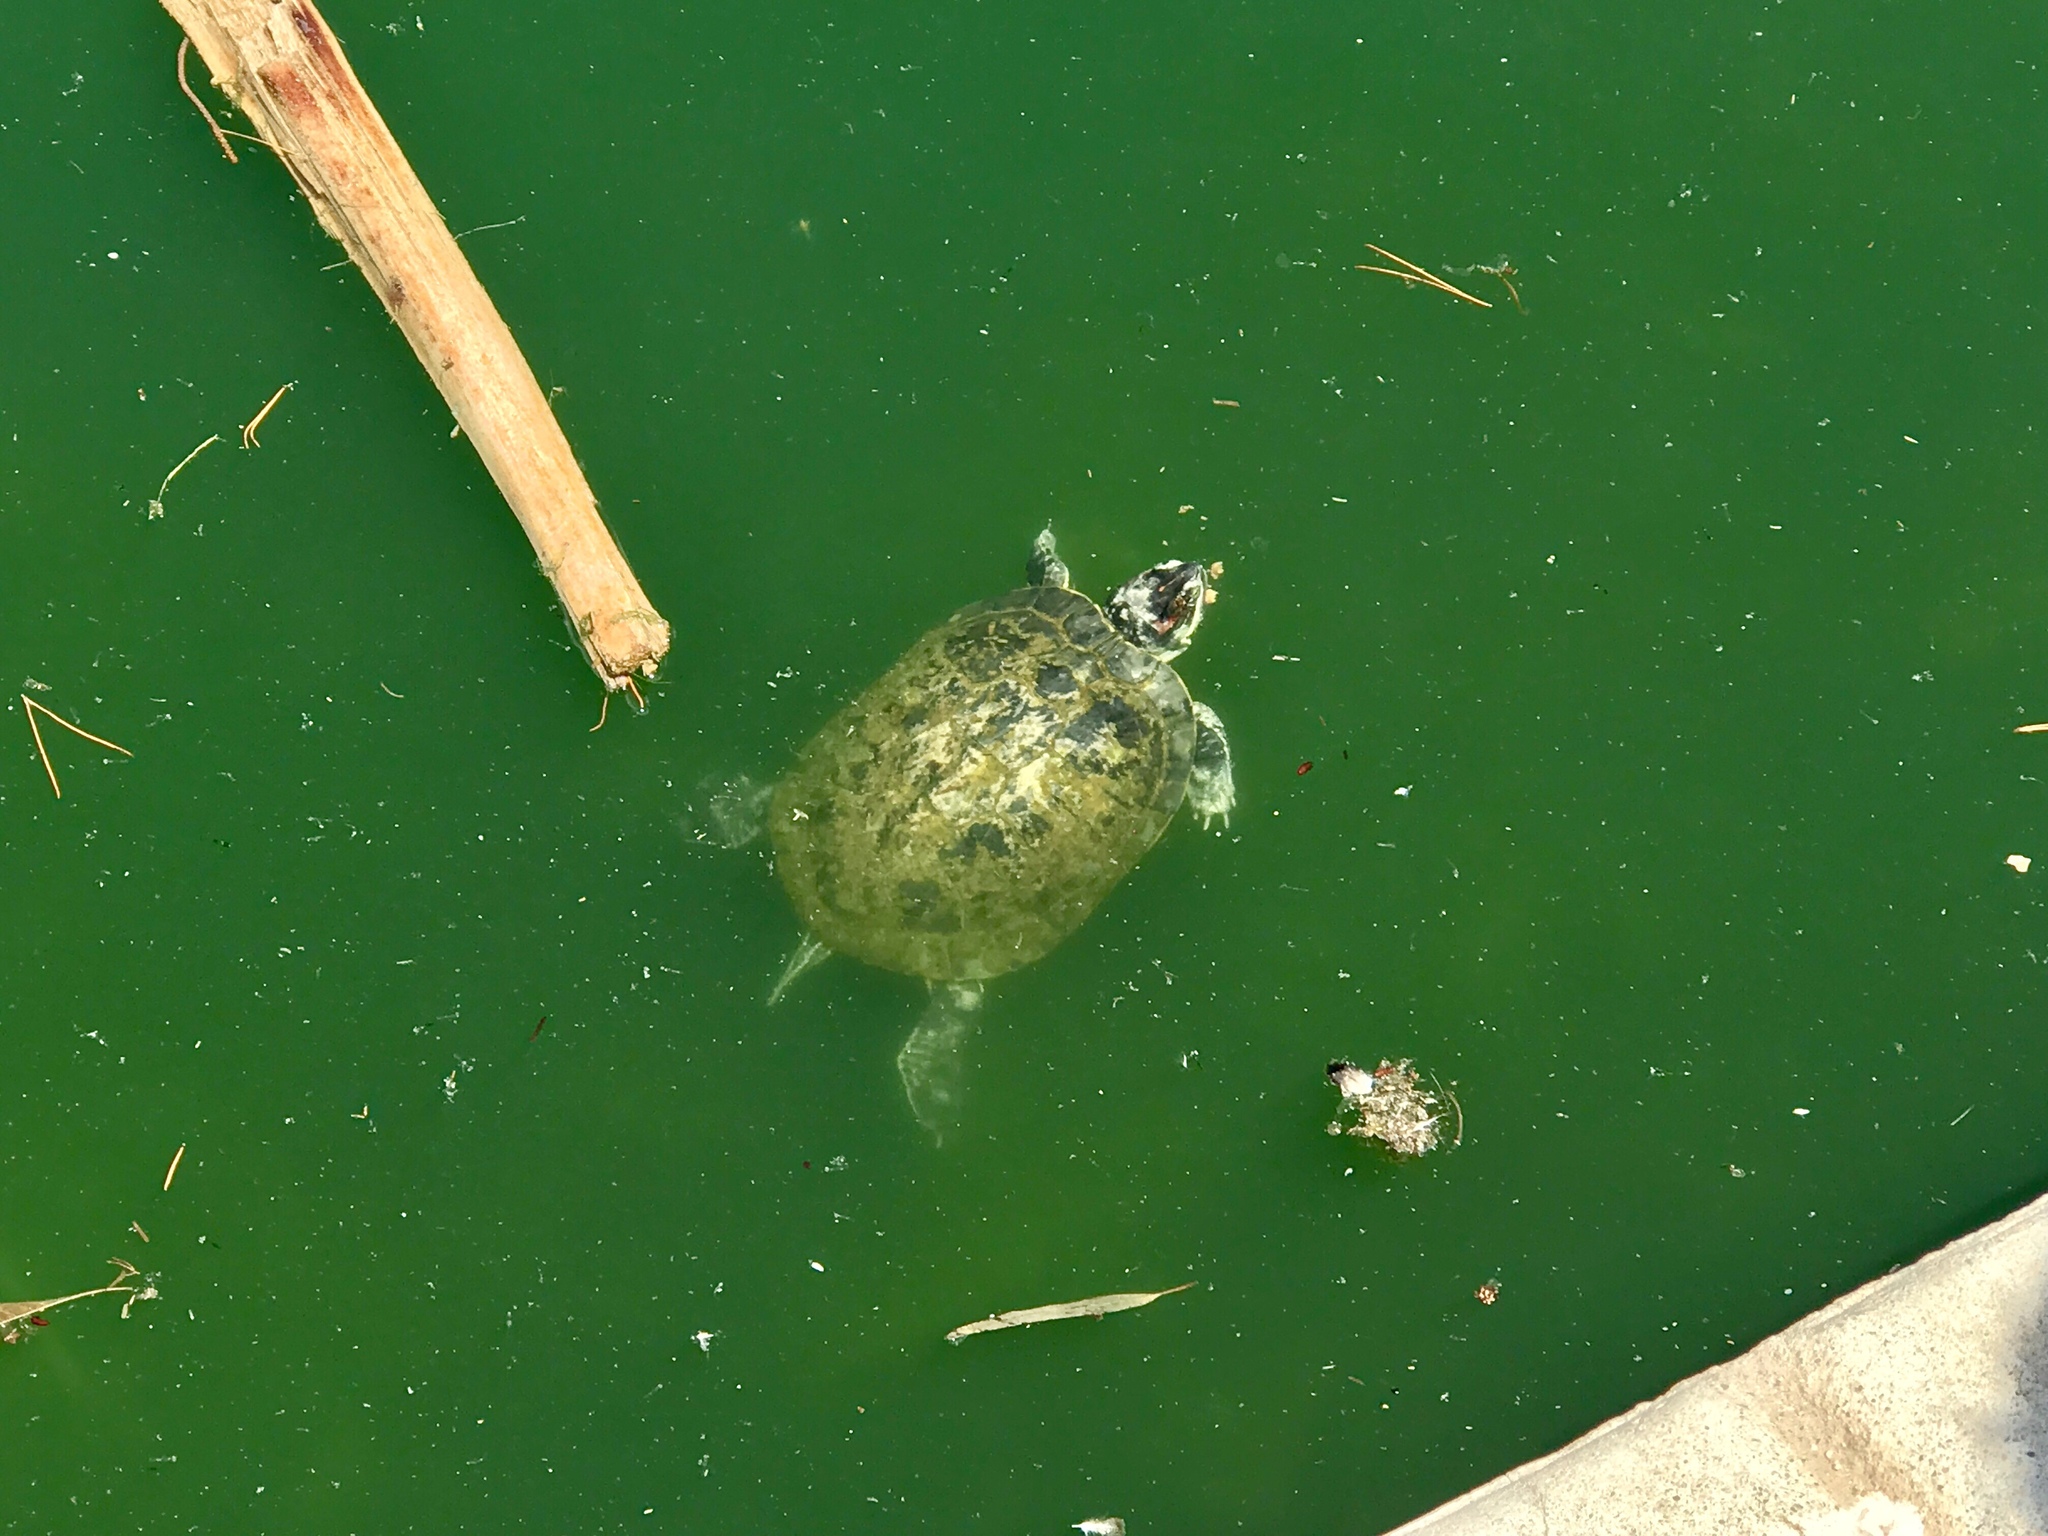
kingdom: Animalia
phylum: Chordata
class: Testudines
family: Emydidae
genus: Trachemys
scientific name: Trachemys scripta
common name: Slider
